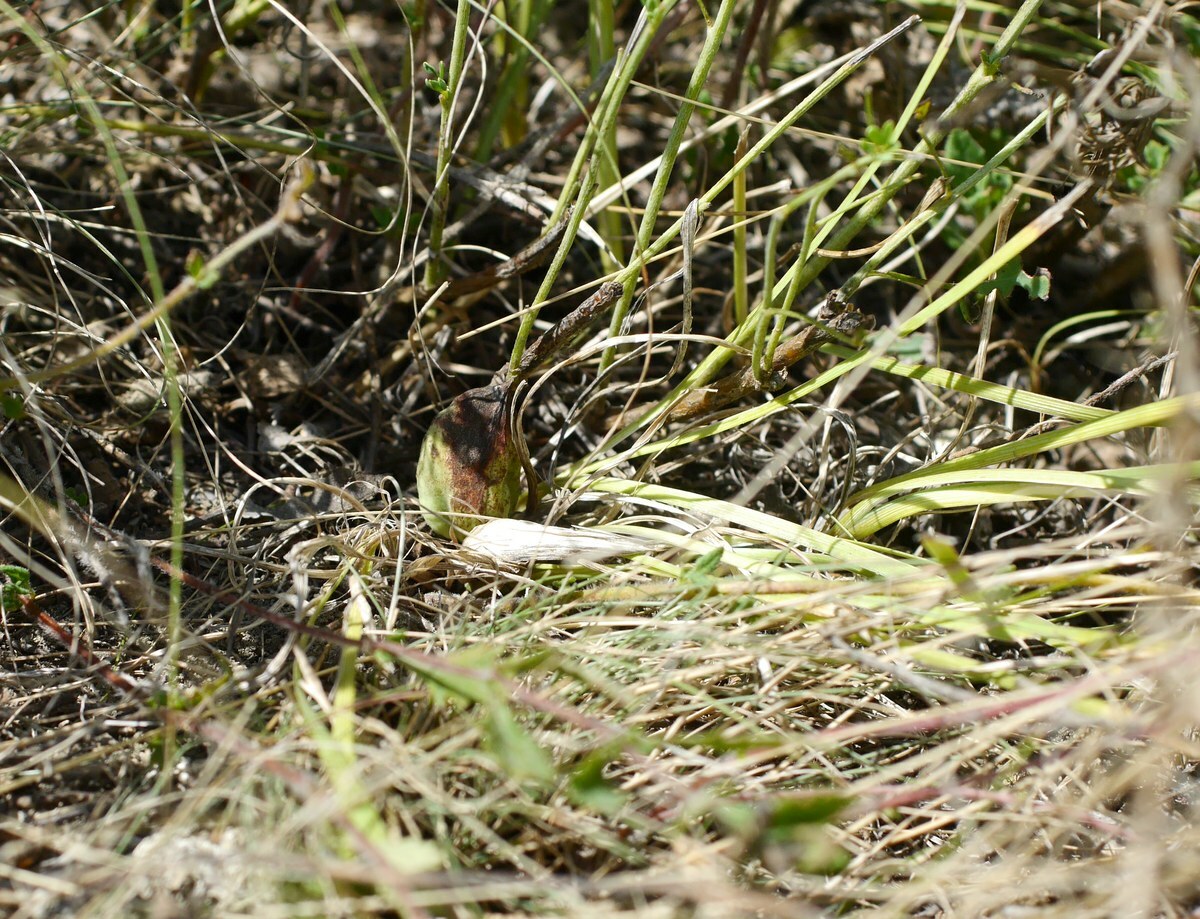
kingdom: Plantae
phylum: Tracheophyta
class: Liliopsida
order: Asparagales
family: Iridaceae
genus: Iris
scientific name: Iris pontica
